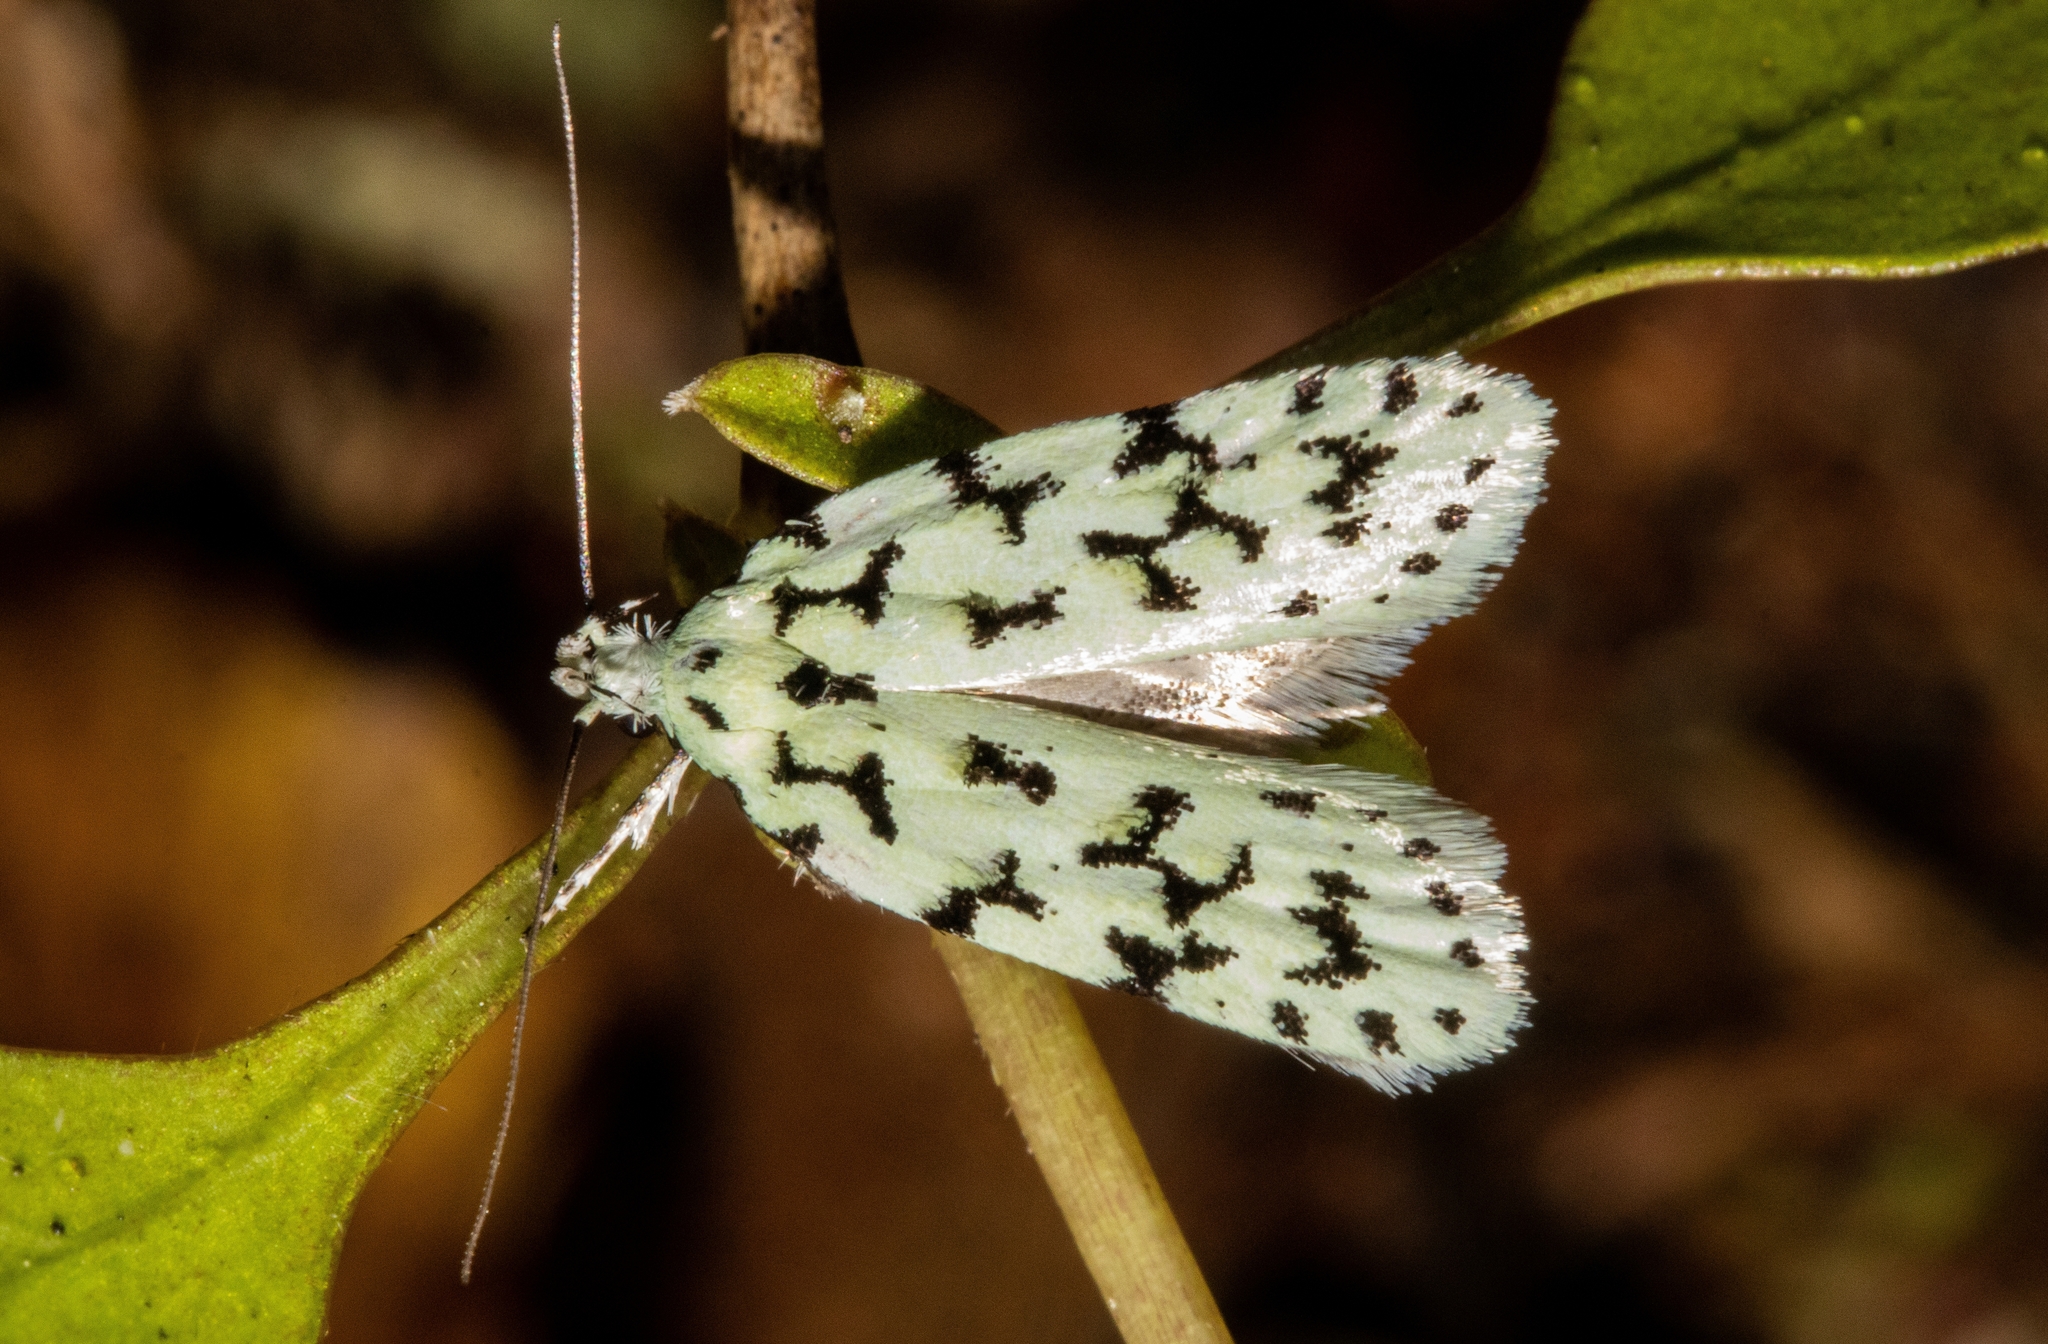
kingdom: Animalia
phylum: Arthropoda
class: Insecta
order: Lepidoptera
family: Oecophoridae
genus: Izatha
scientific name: Izatha huttoni
